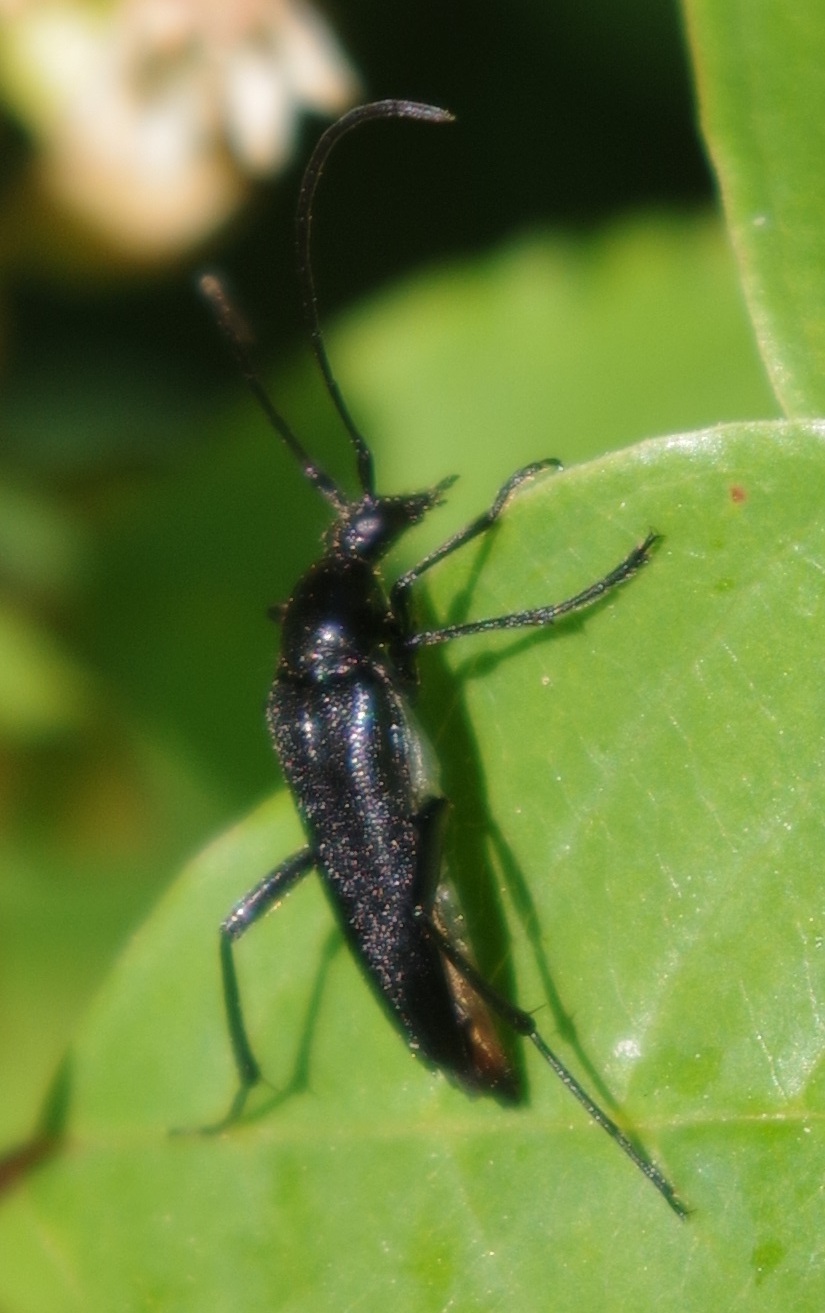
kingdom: Animalia
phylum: Arthropoda
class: Insecta
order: Coleoptera
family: Cerambycidae
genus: Stenurella
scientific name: Stenurella nigra
